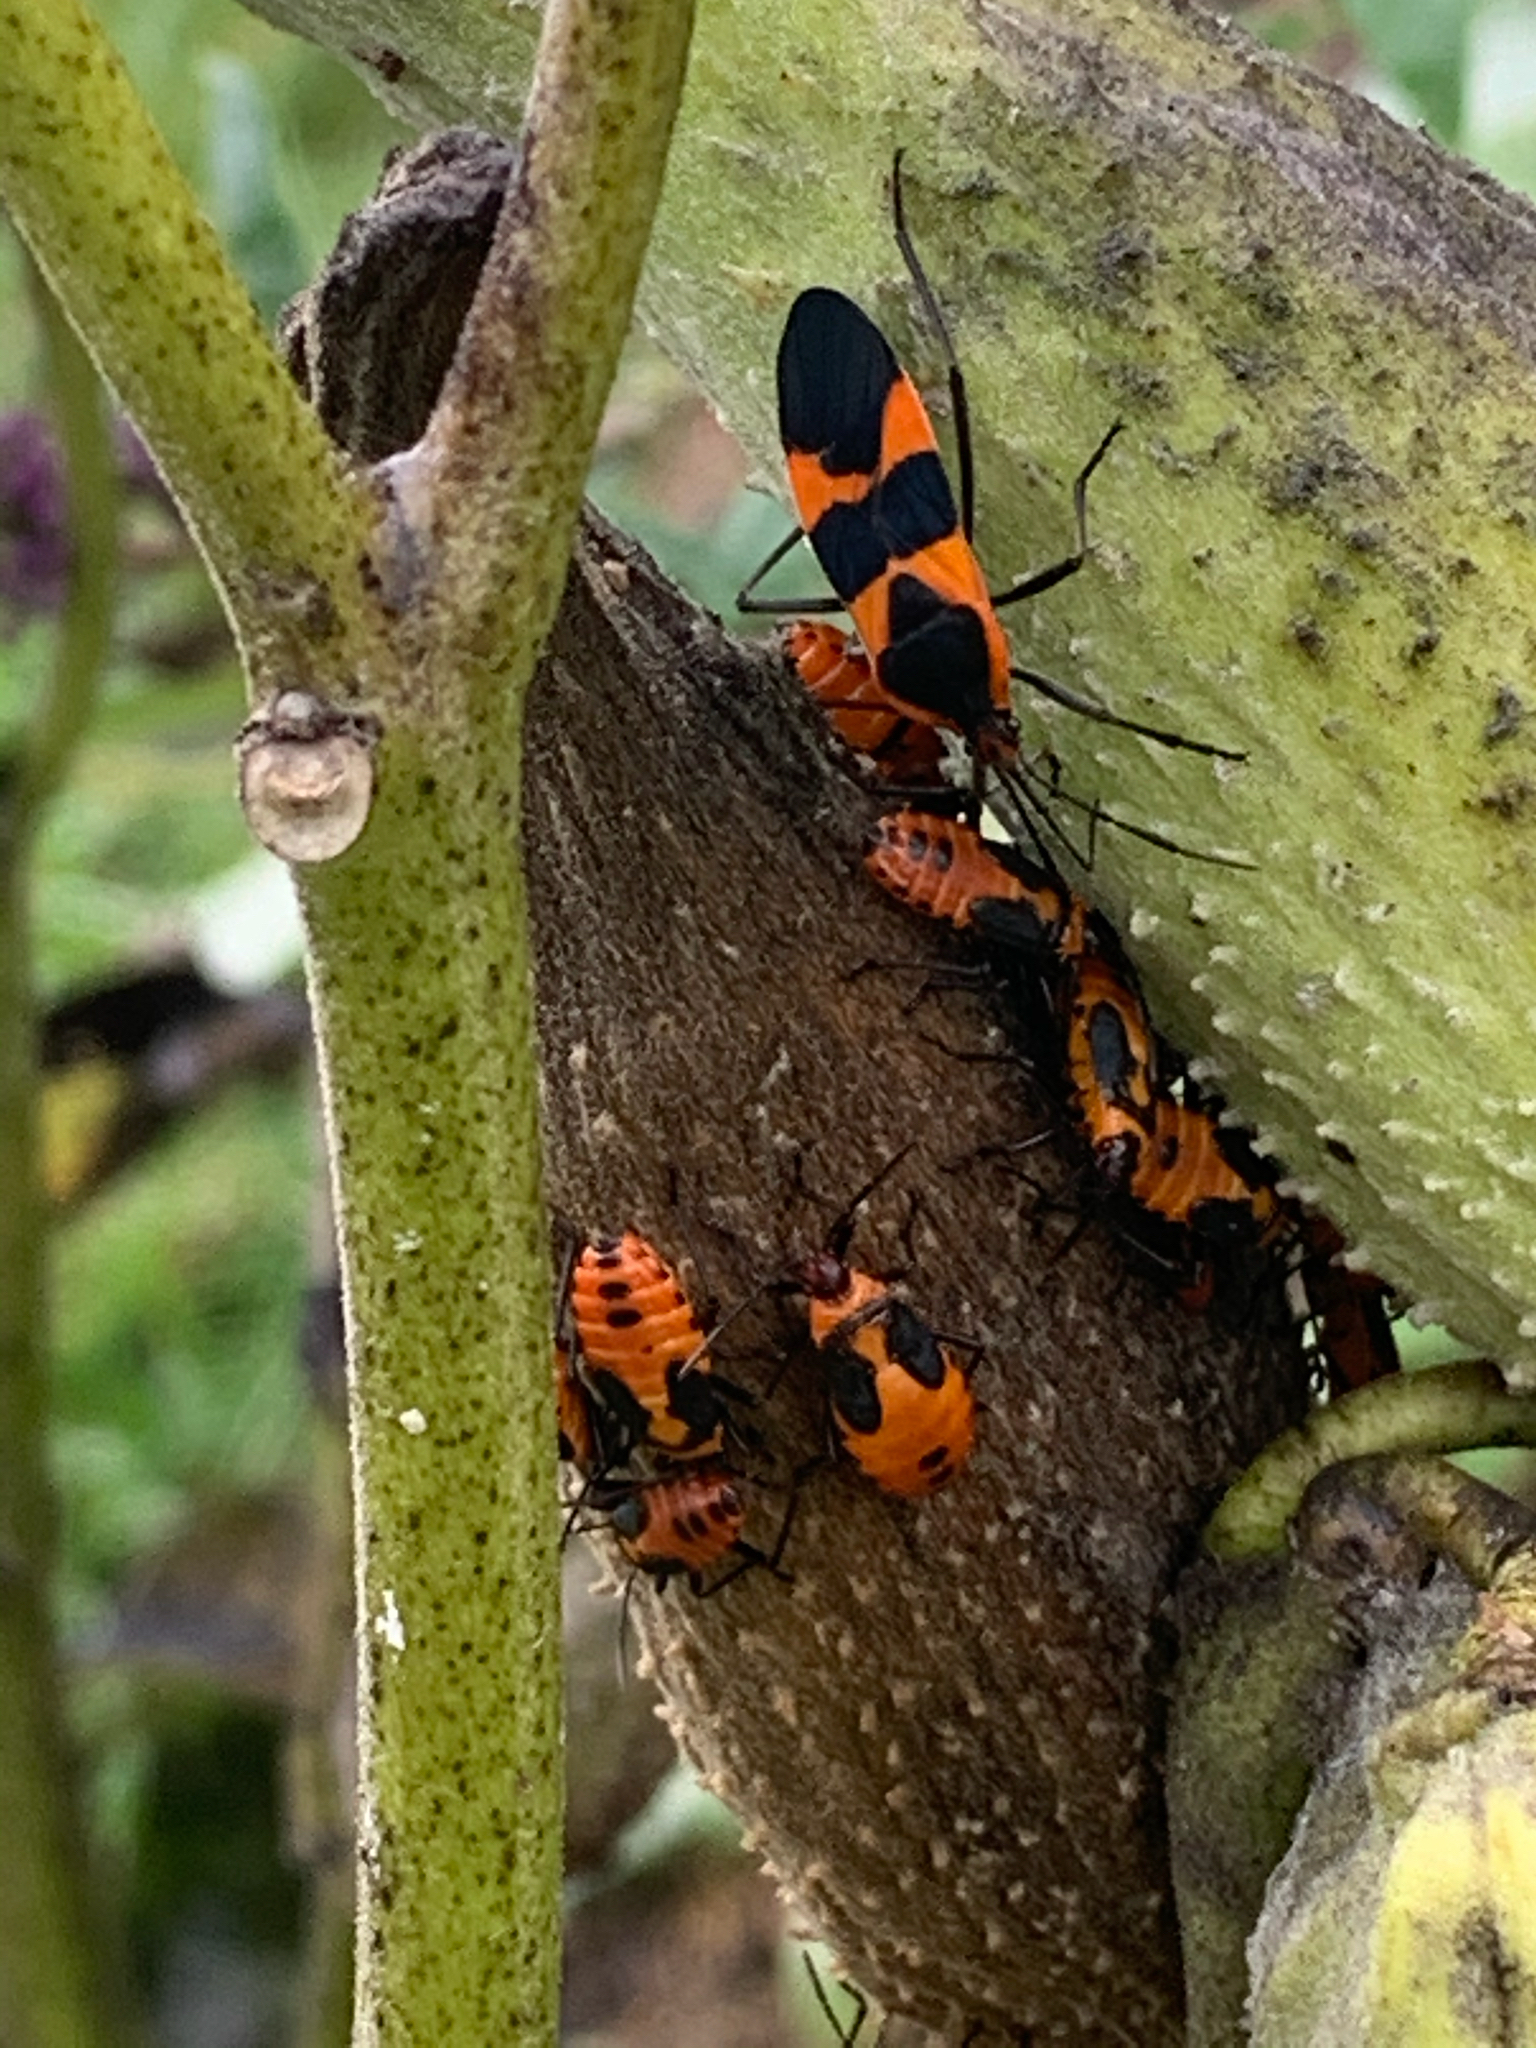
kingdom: Animalia
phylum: Arthropoda
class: Insecta
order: Hemiptera
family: Lygaeidae
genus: Oncopeltus
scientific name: Oncopeltus fasciatus
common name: Large milkweed bug
